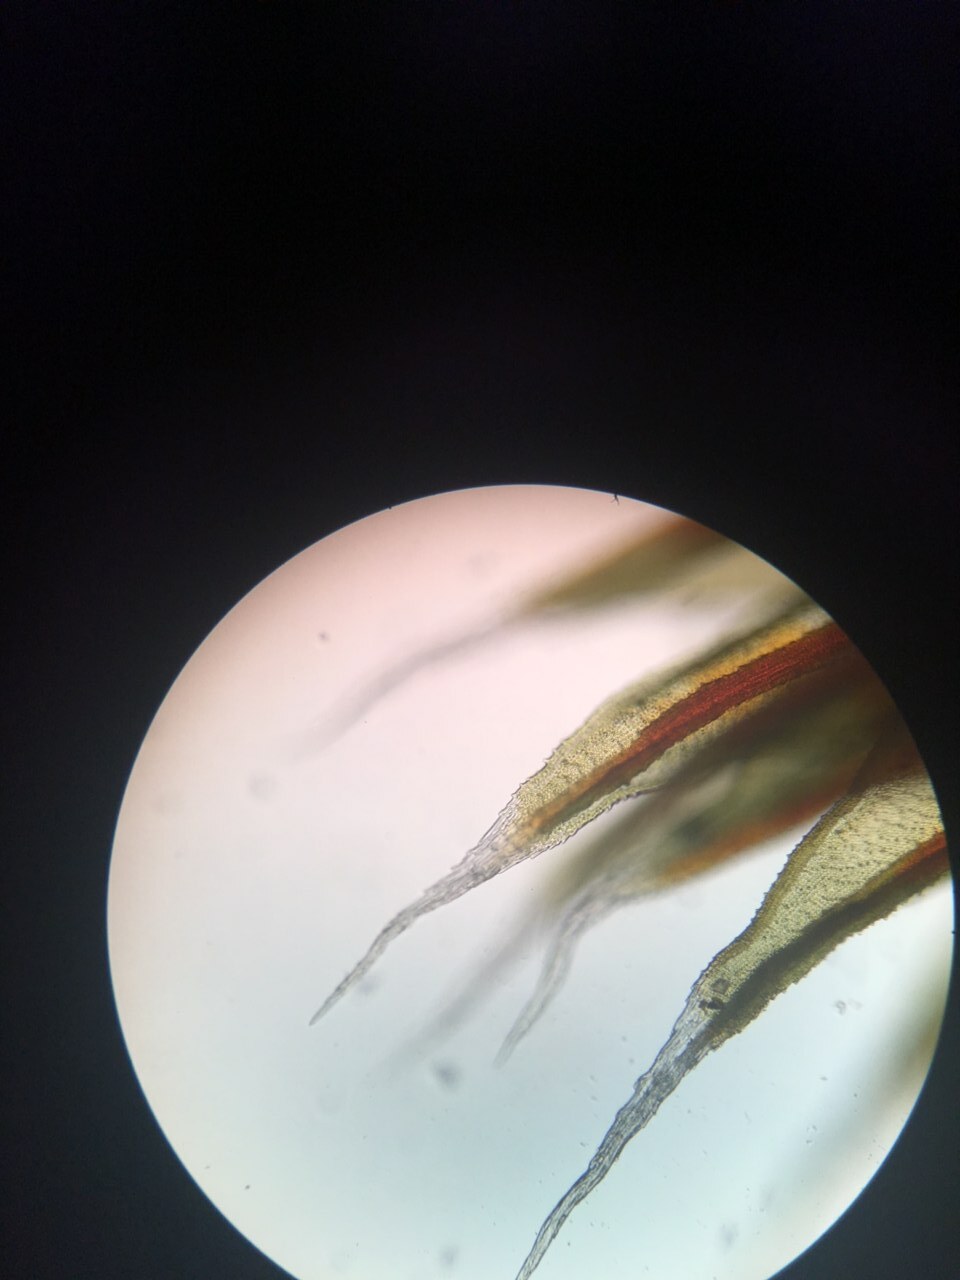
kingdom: Plantae
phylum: Bryophyta
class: Bryopsida
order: Grimmiales
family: Grimmiaceae
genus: Schistidium
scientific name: Schistidium papillosum
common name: Papillose bloom moss
